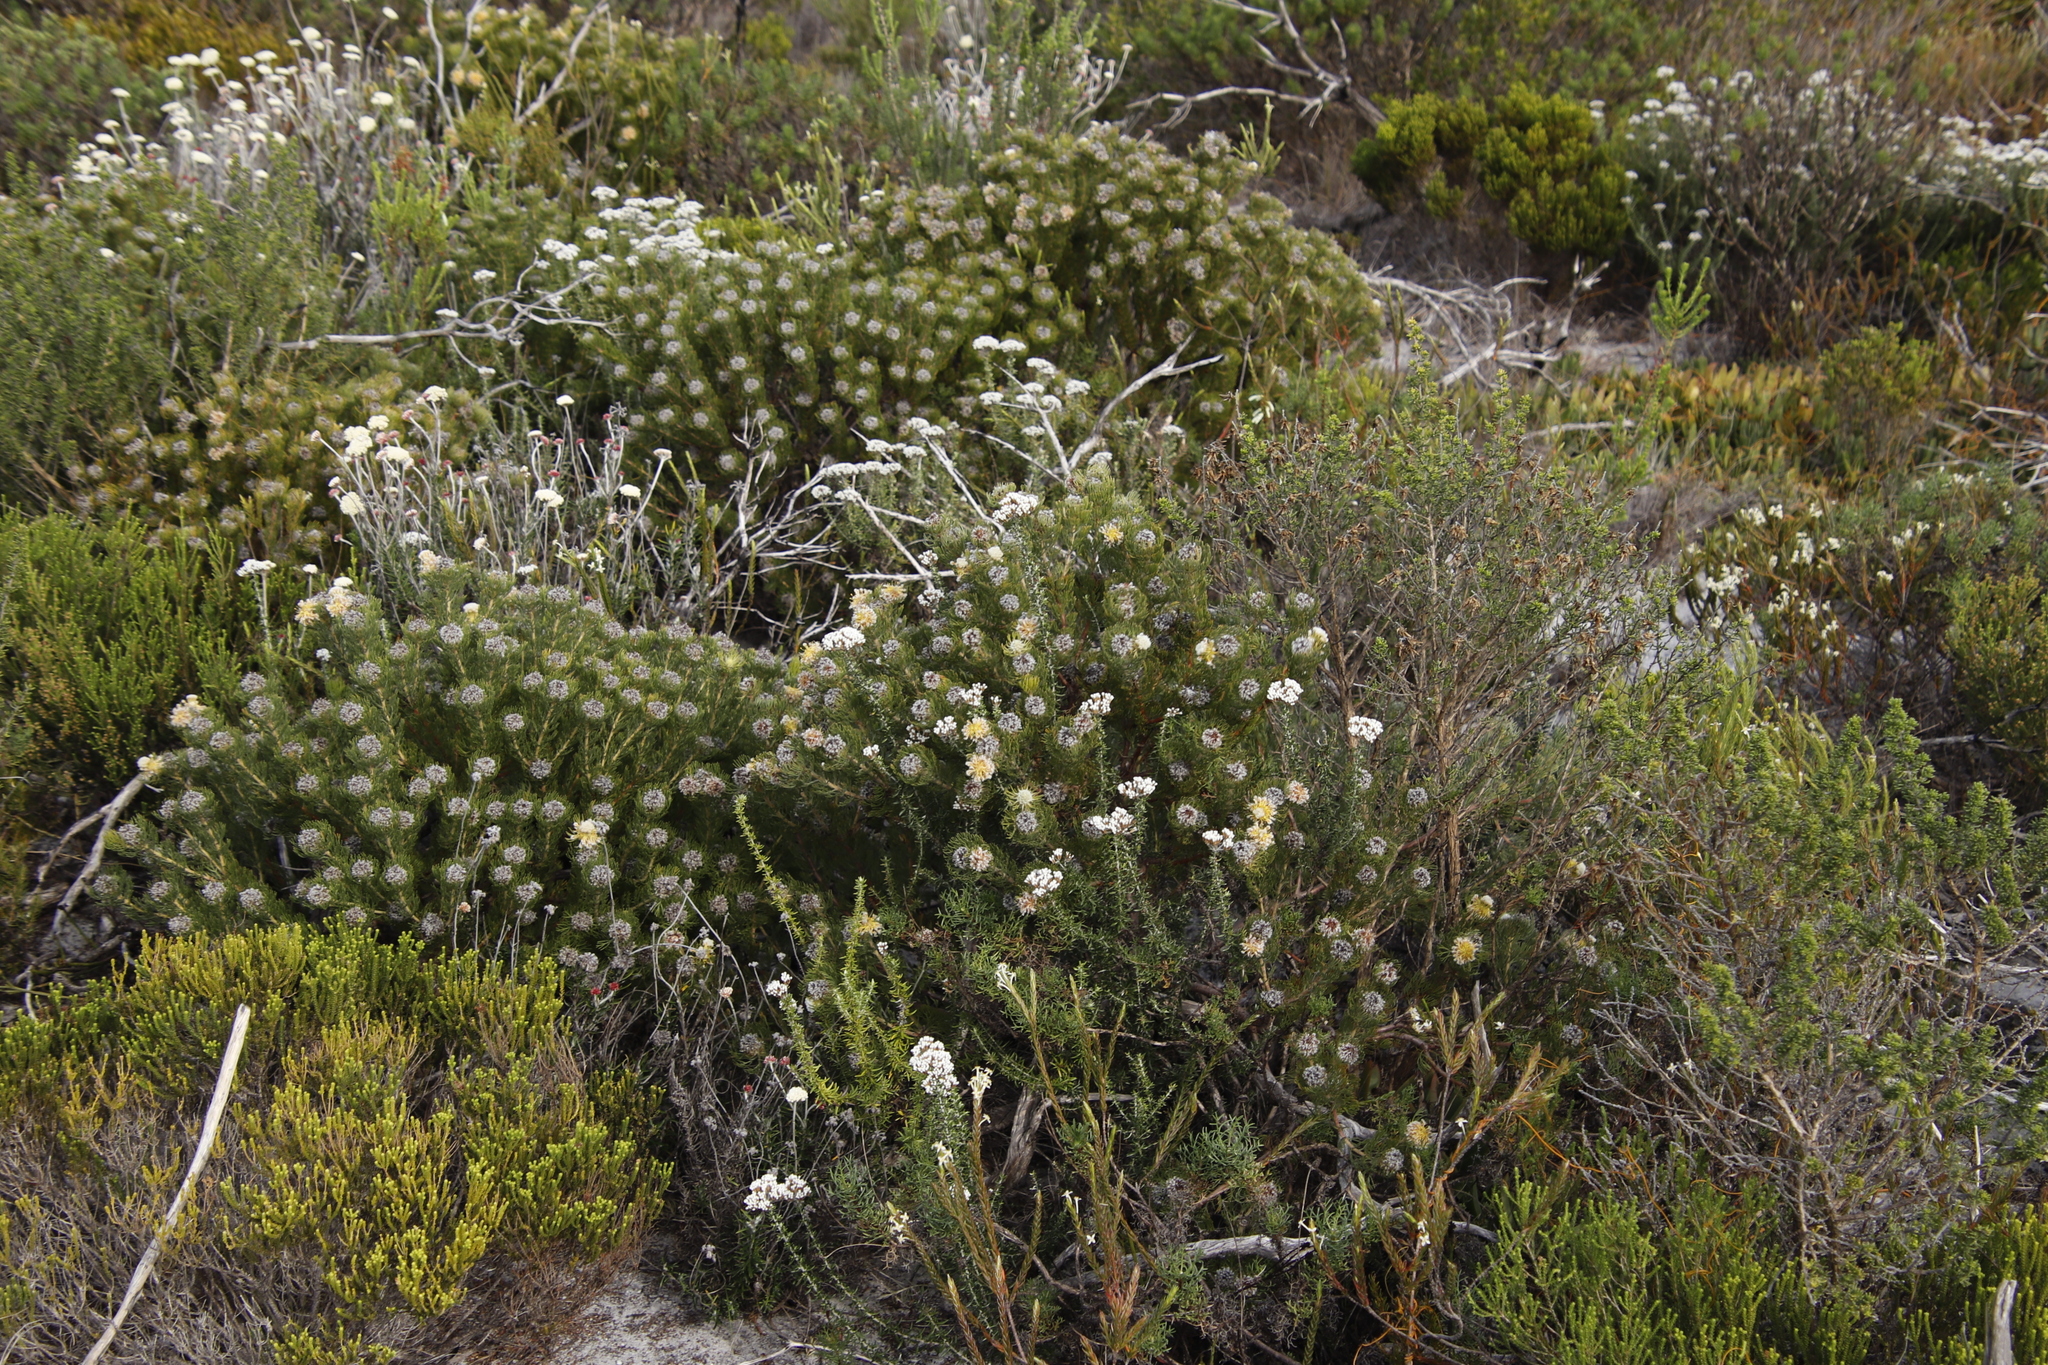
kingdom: Plantae
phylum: Tracheophyta
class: Magnoliopsida
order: Proteales
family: Proteaceae
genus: Serruria
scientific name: Serruria villosa
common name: Golden spiderhead
